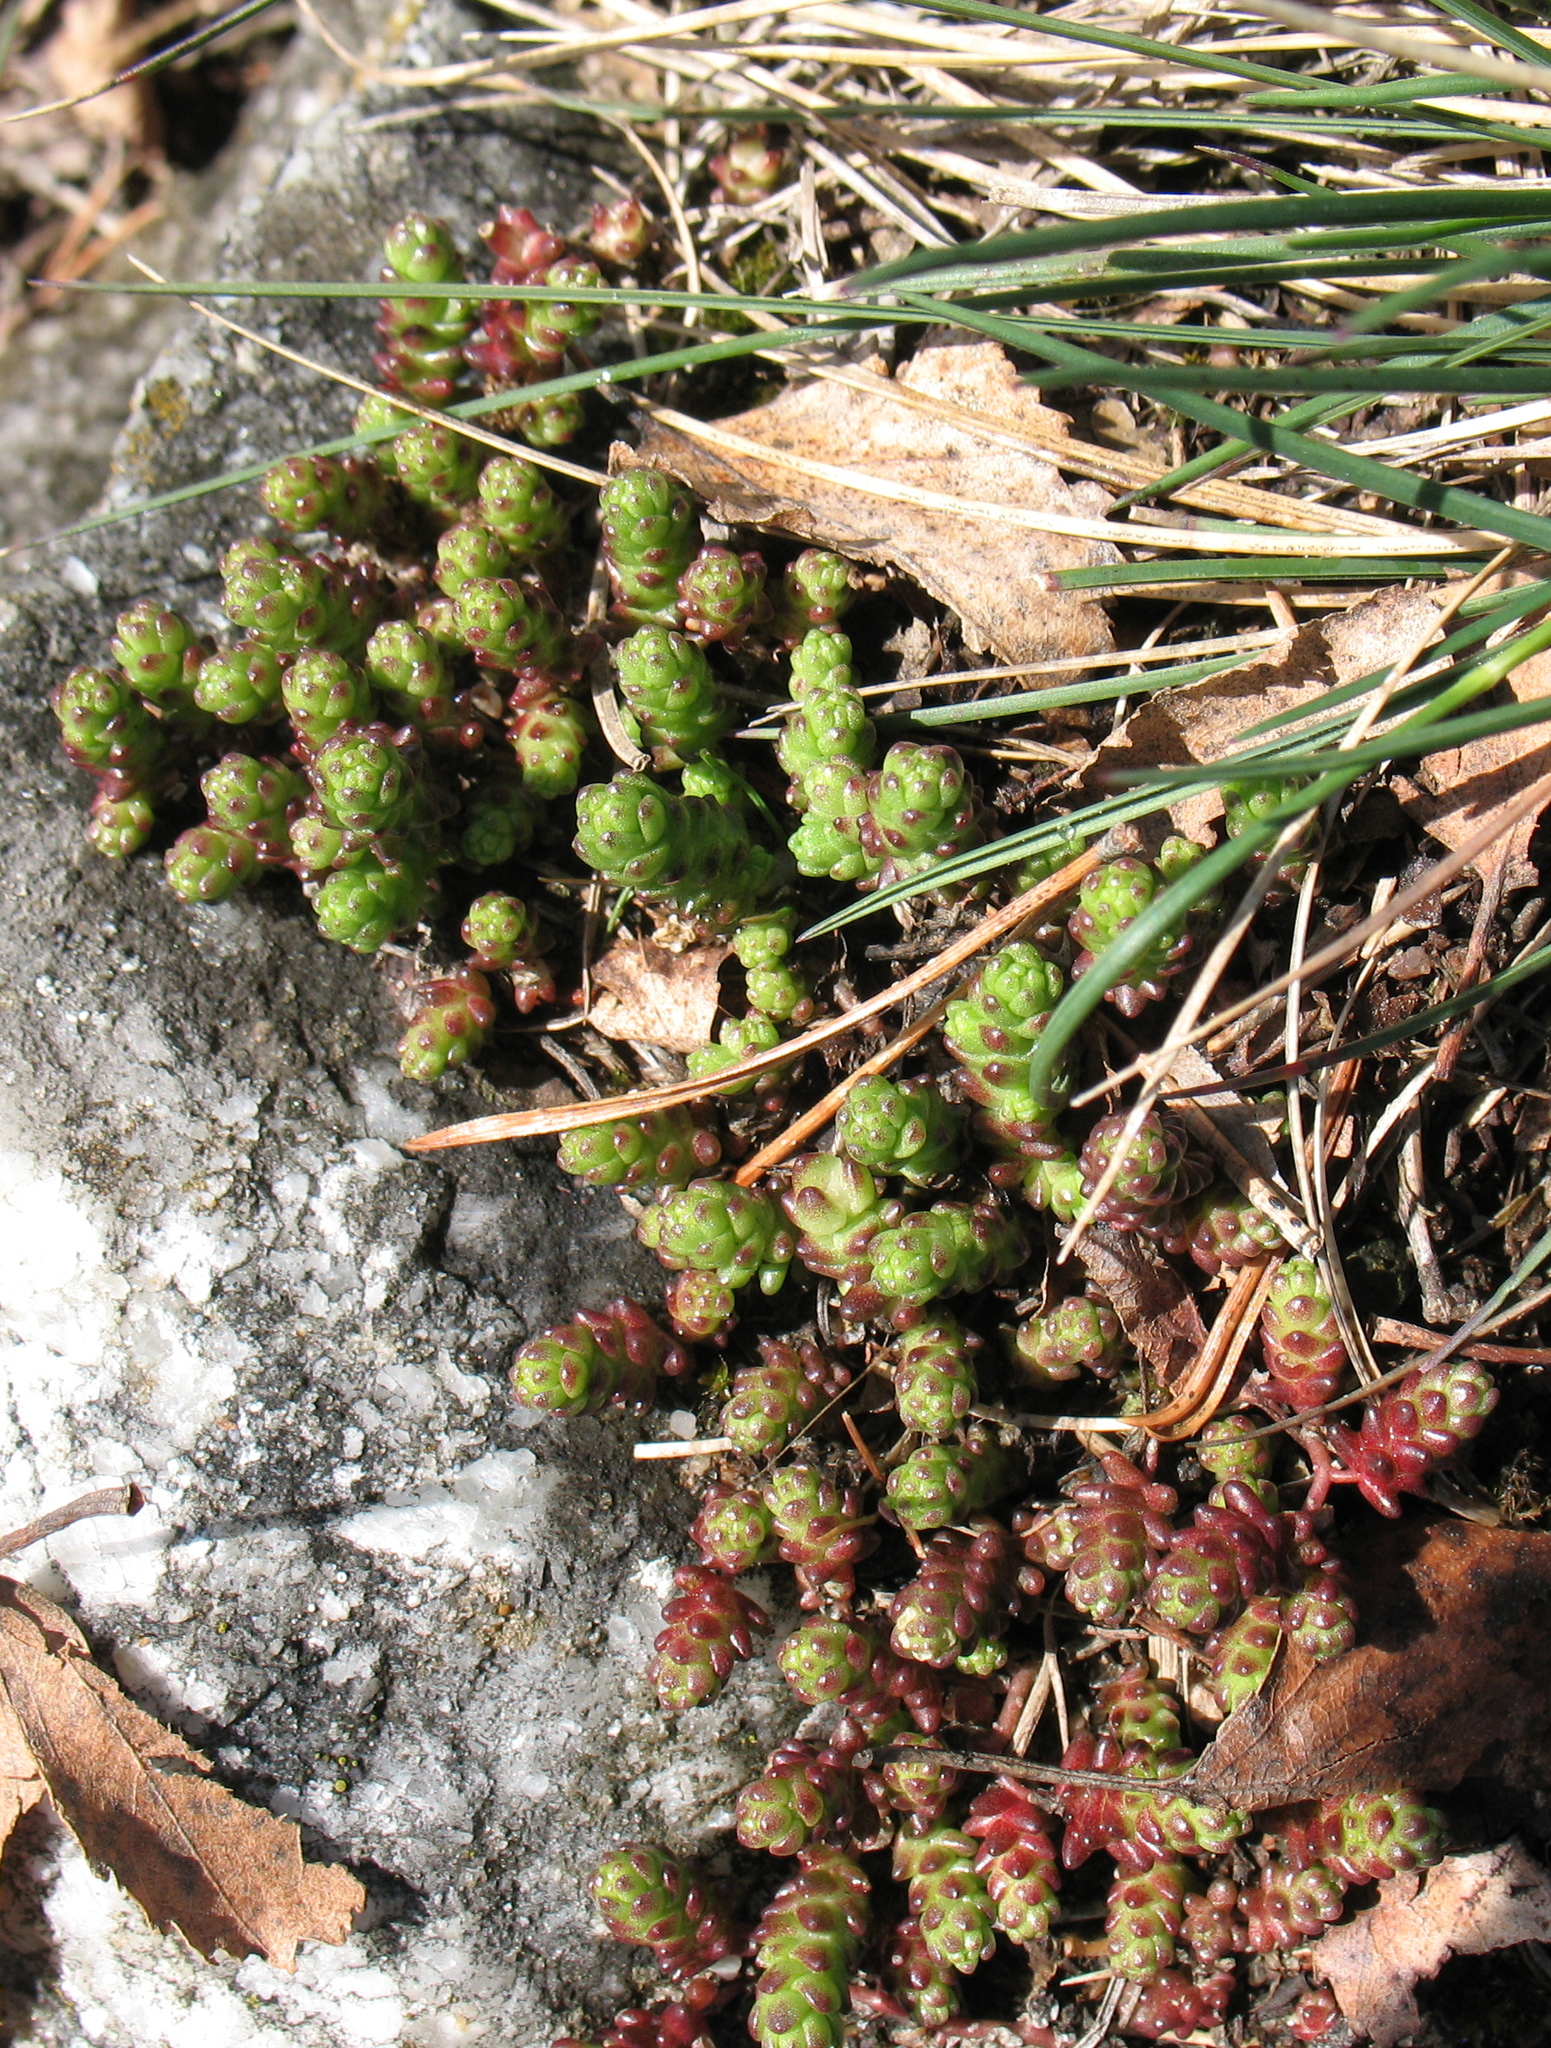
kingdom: Plantae
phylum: Tracheophyta
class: Magnoliopsida
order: Saxifragales
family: Crassulaceae
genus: Sedum
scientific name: Sedum acre
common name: Biting stonecrop
